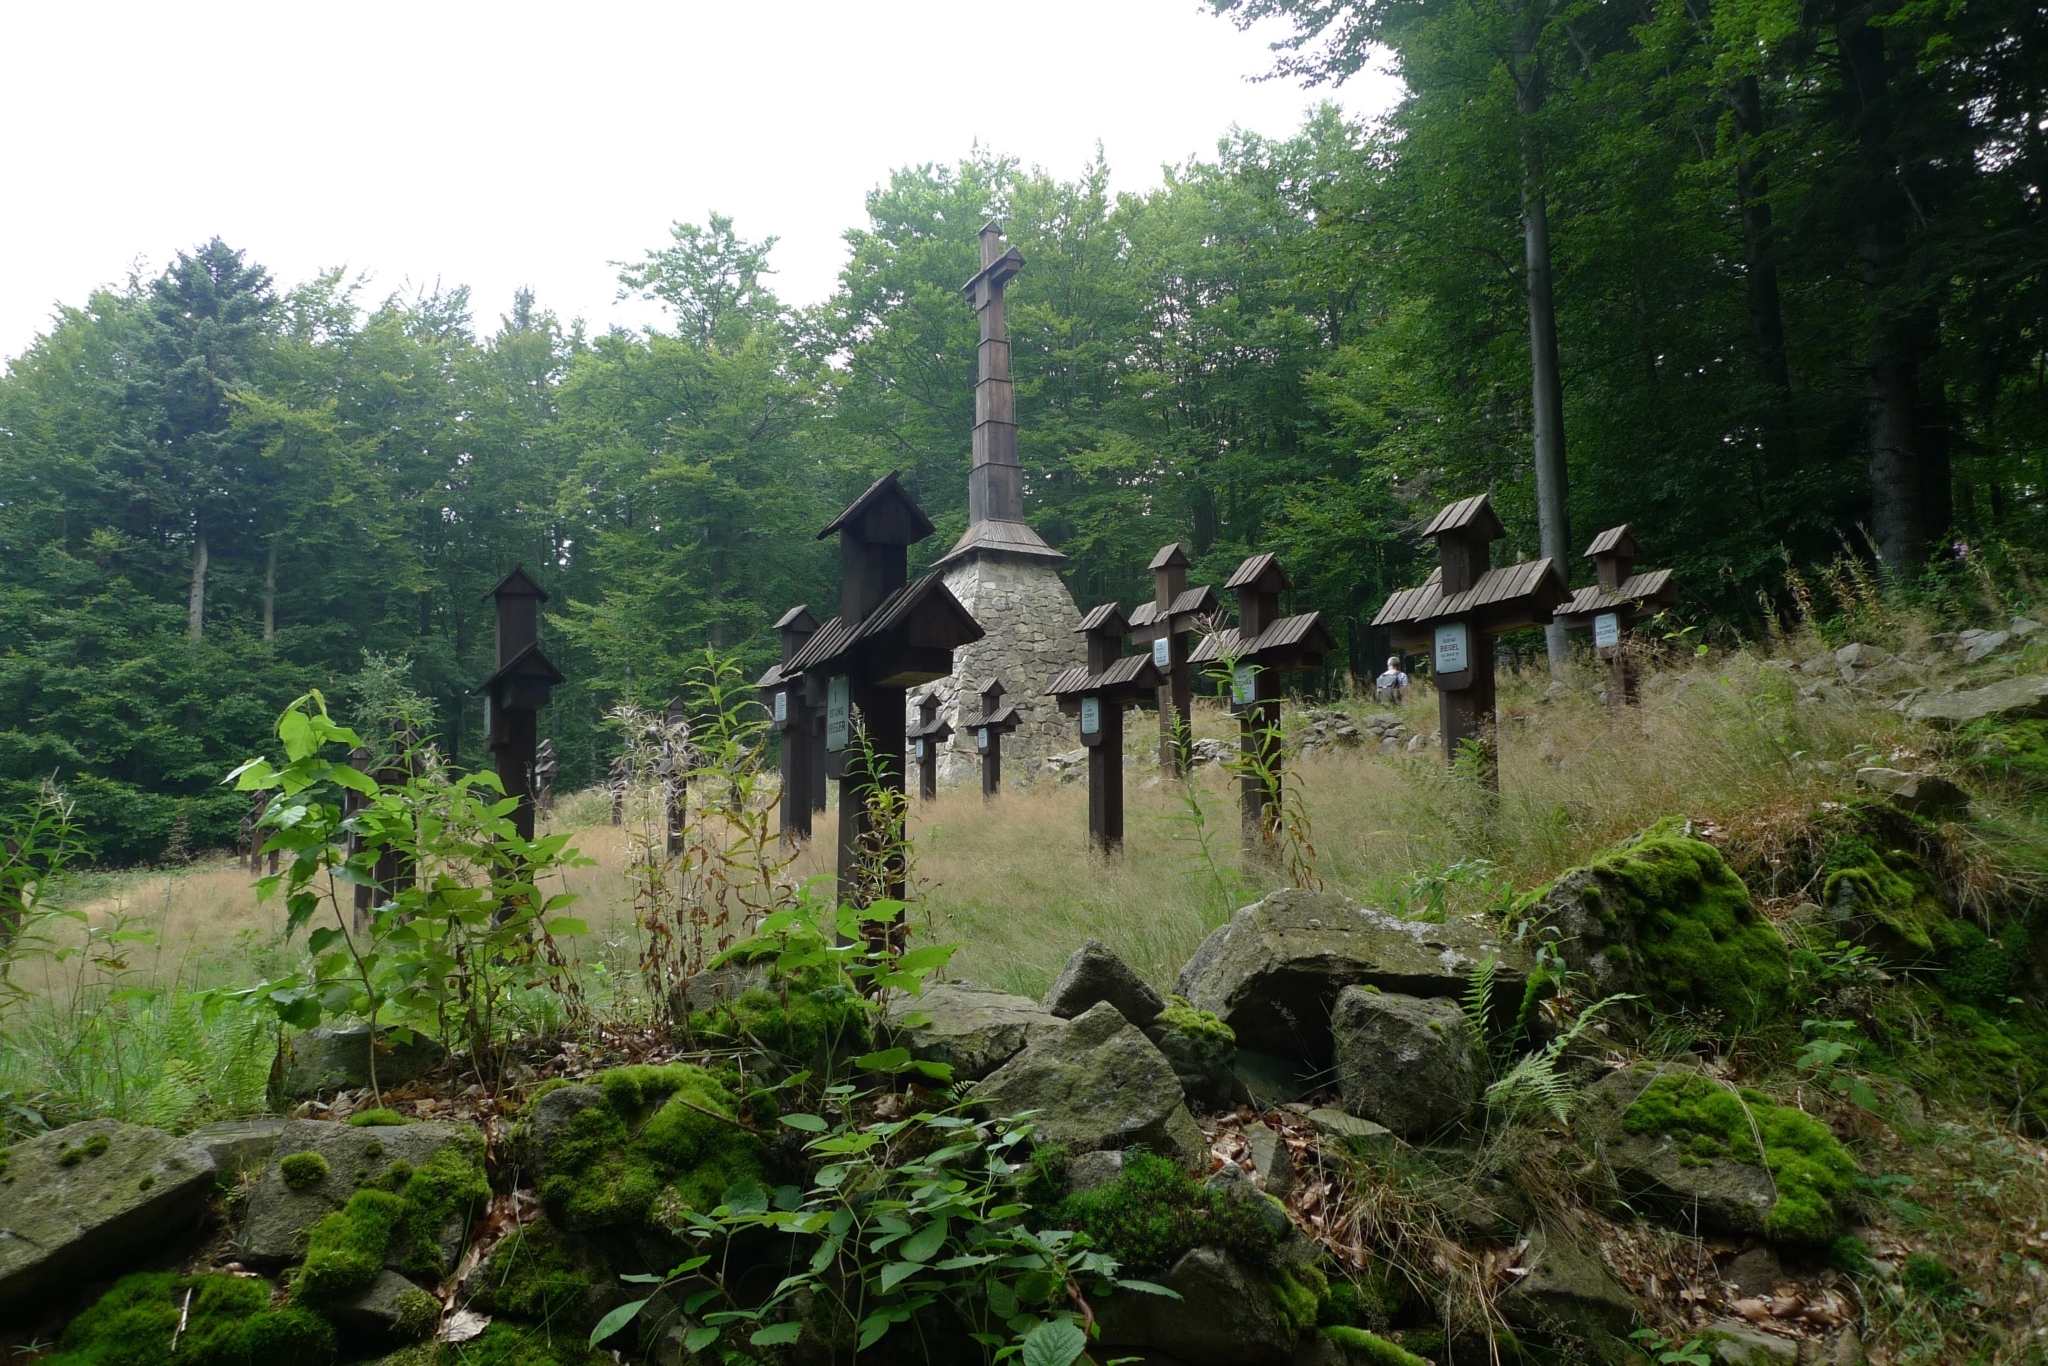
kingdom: Plantae
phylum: Bryophyta
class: Polytrichopsida
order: Polytrichales
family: Polytrichaceae
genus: Polytrichum
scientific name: Polytrichum formosum
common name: Bank haircap moss
